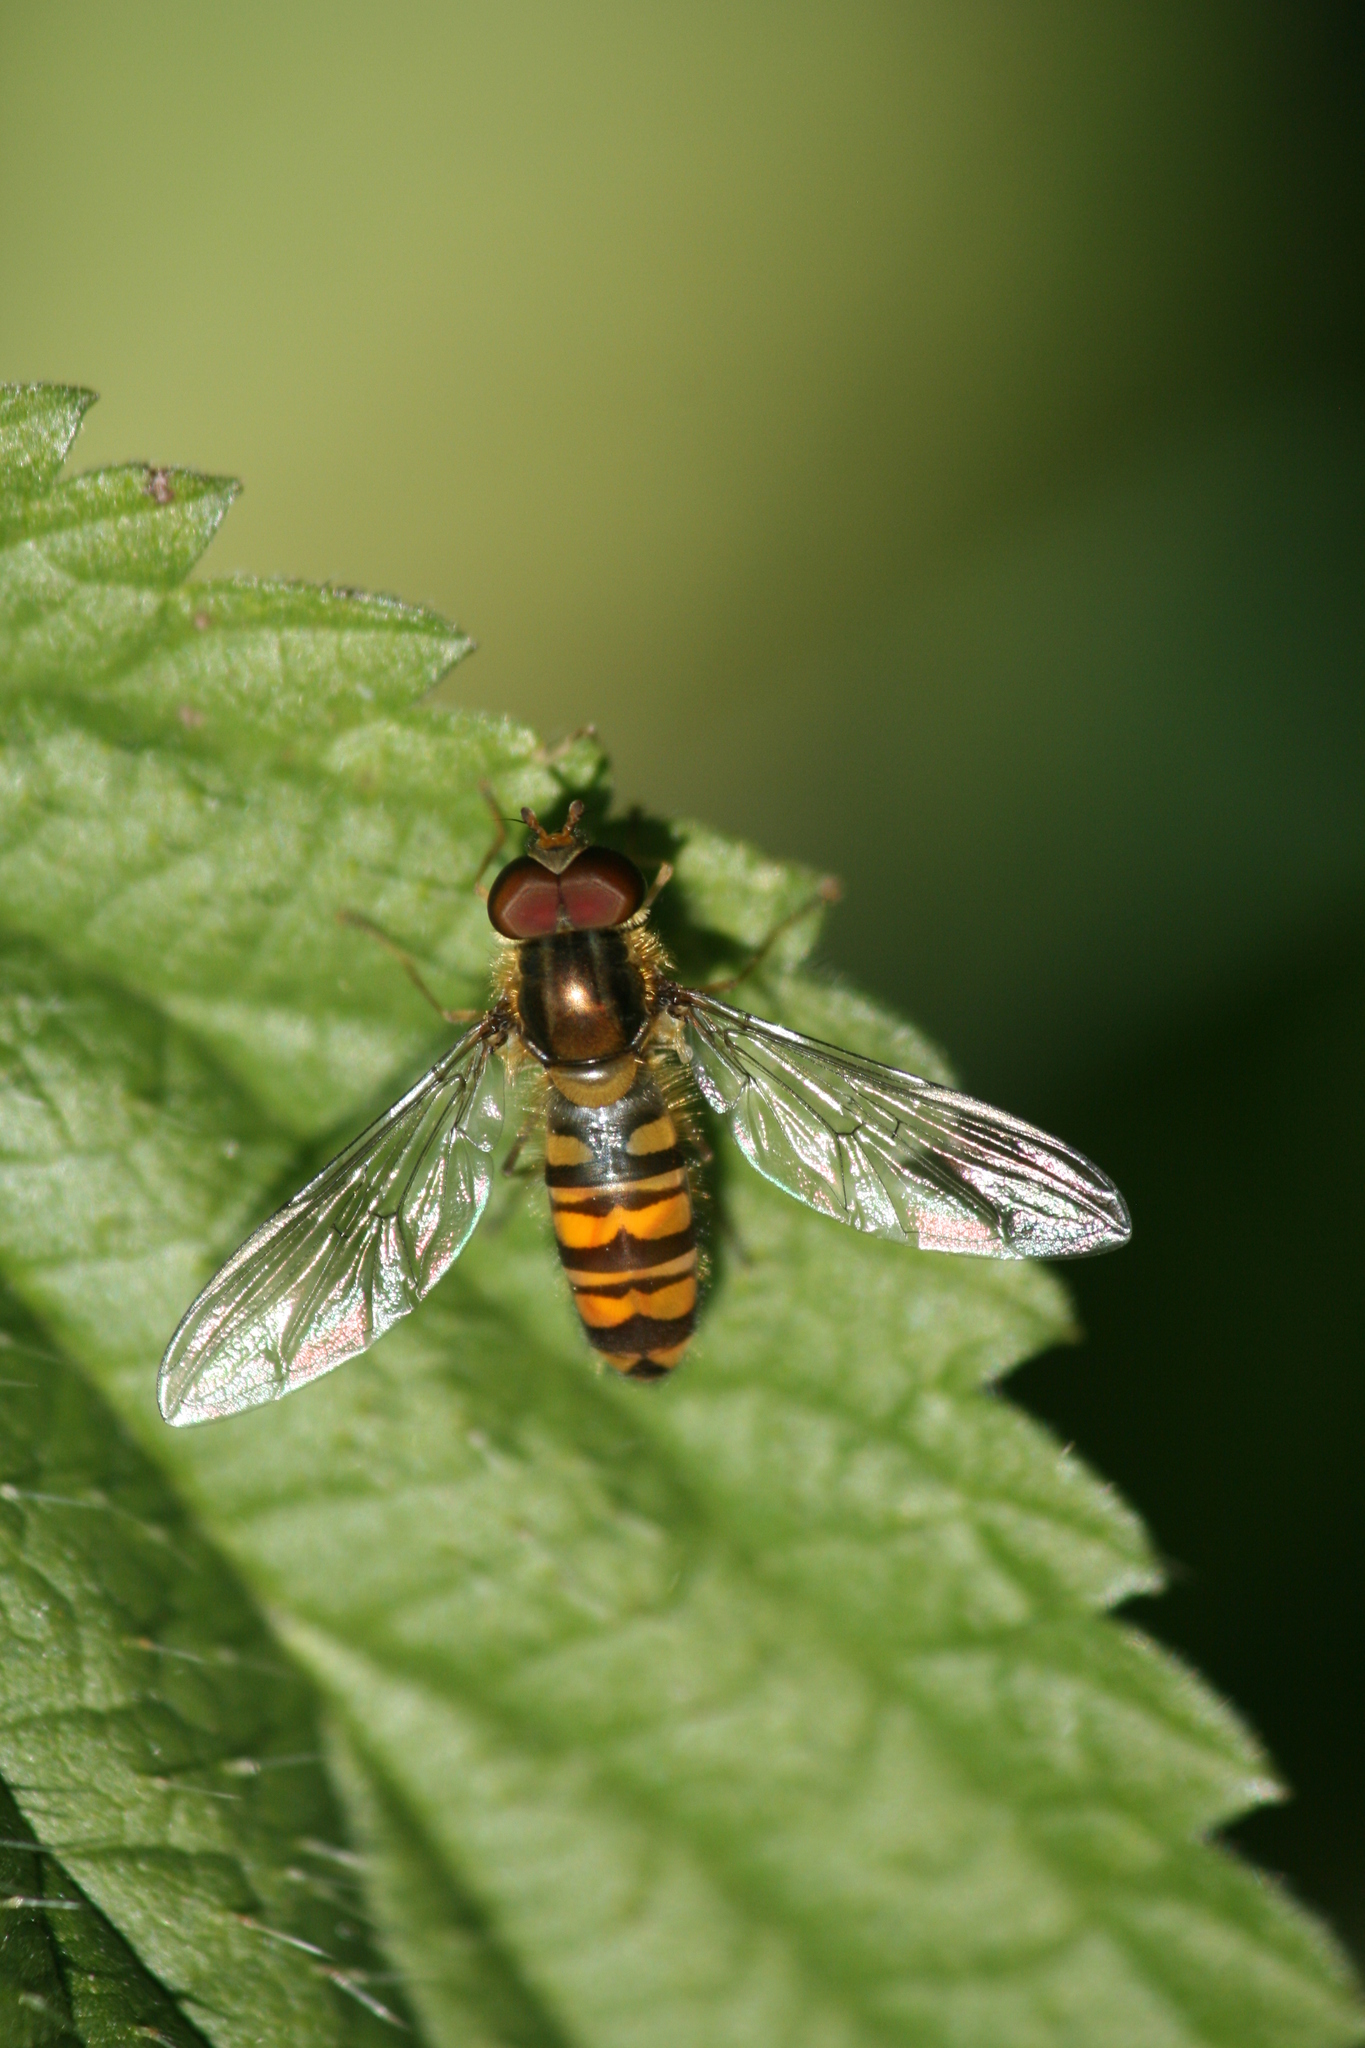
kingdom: Animalia
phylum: Arthropoda
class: Insecta
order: Diptera
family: Syrphidae
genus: Episyrphus
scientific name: Episyrphus balteatus
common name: Marmalade hoverfly
